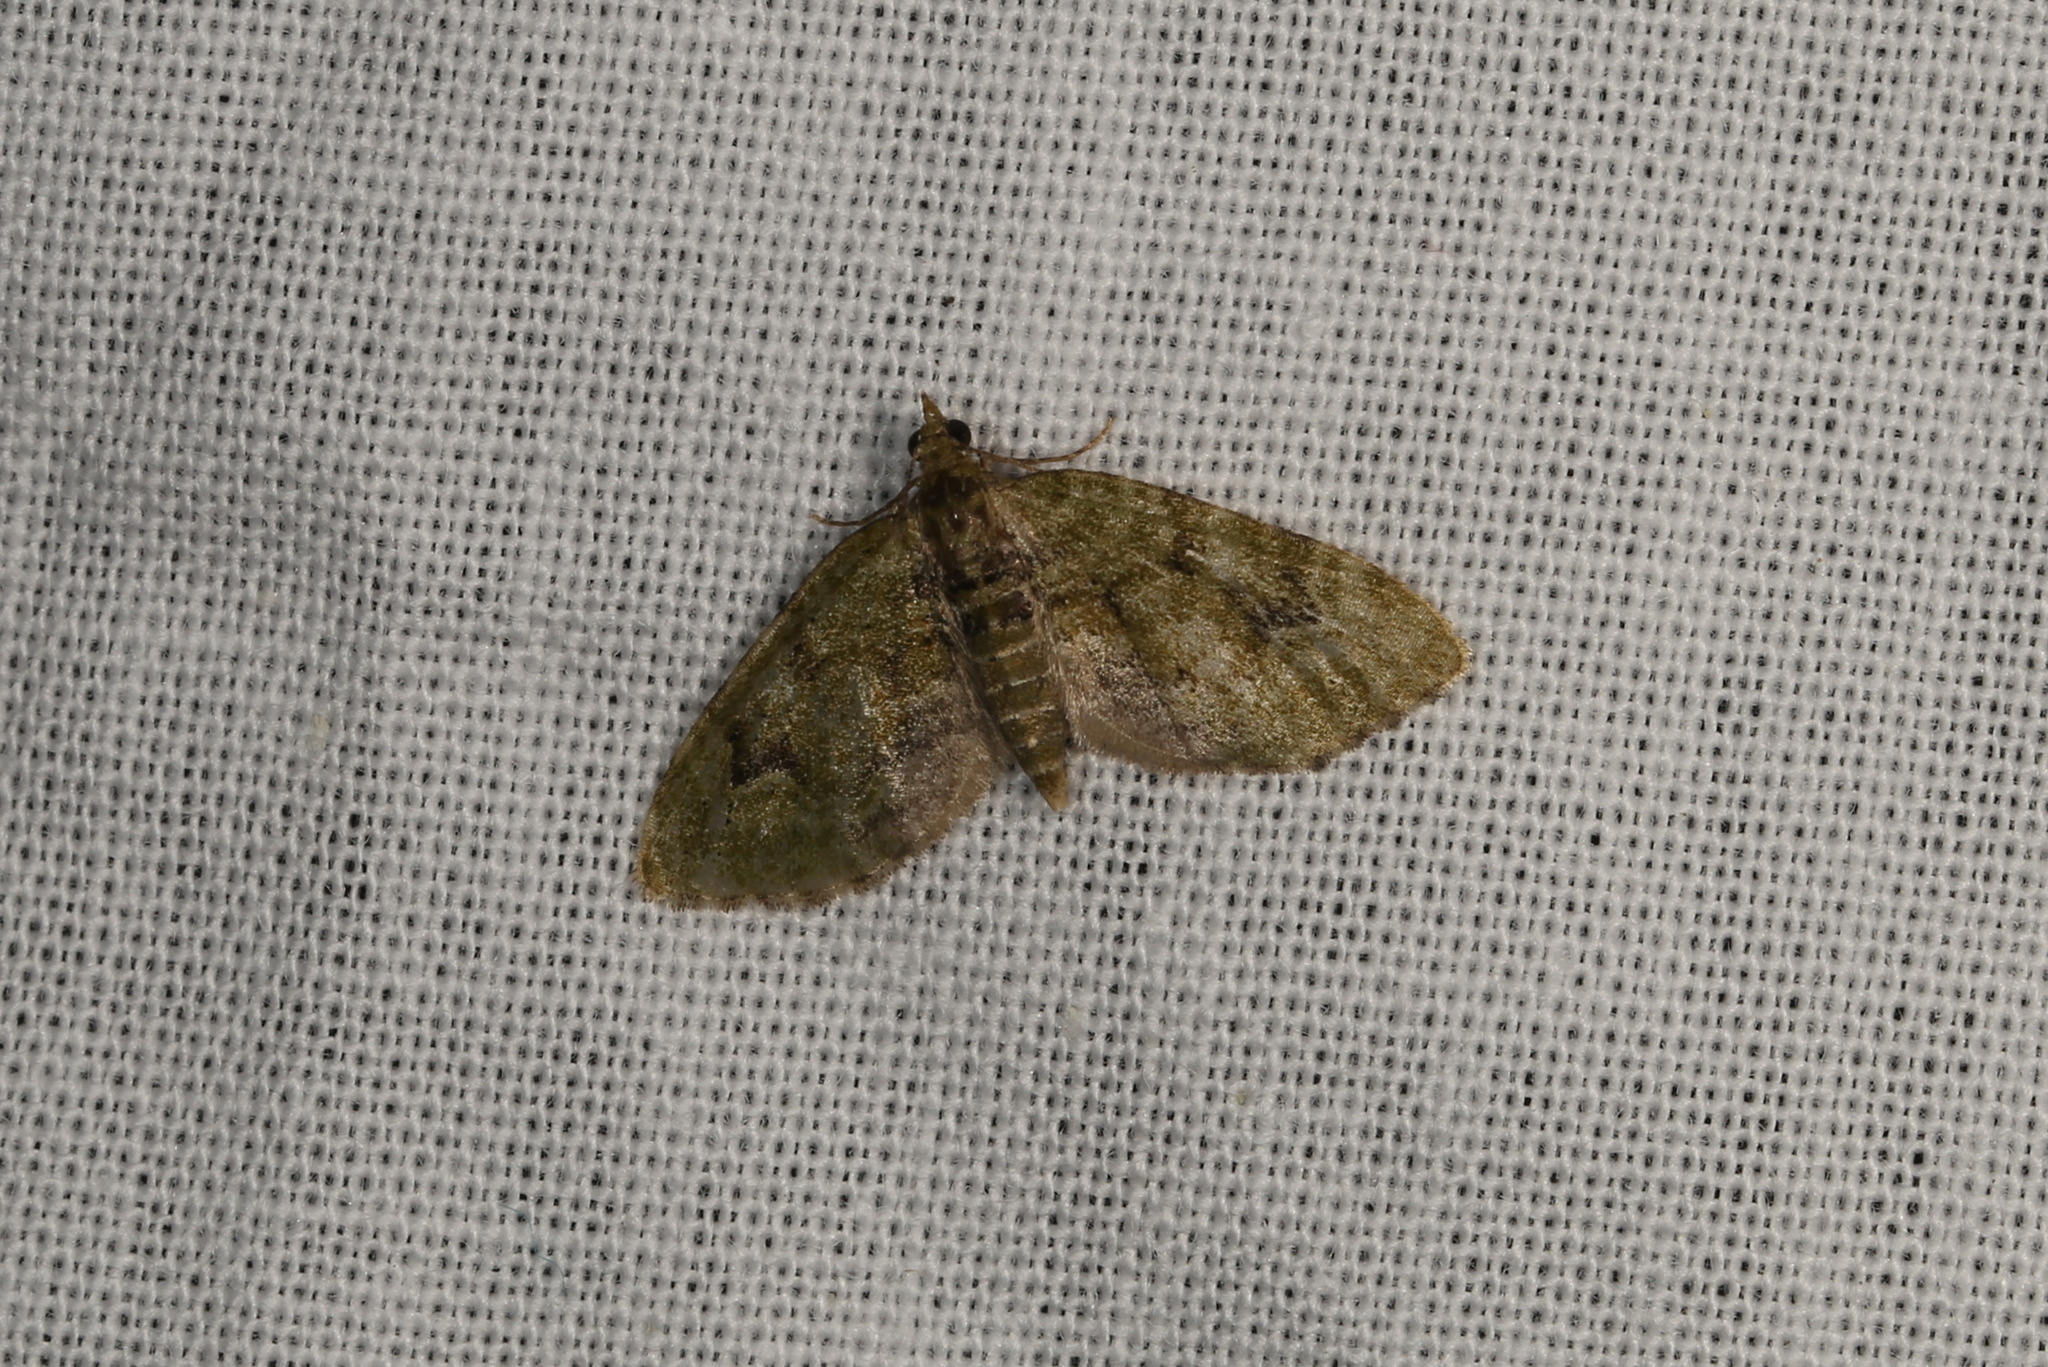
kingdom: Animalia
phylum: Arthropoda
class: Insecta
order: Lepidoptera
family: Geometridae
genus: Chloroclystis
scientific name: Chloroclystis v-ata
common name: V-pug
